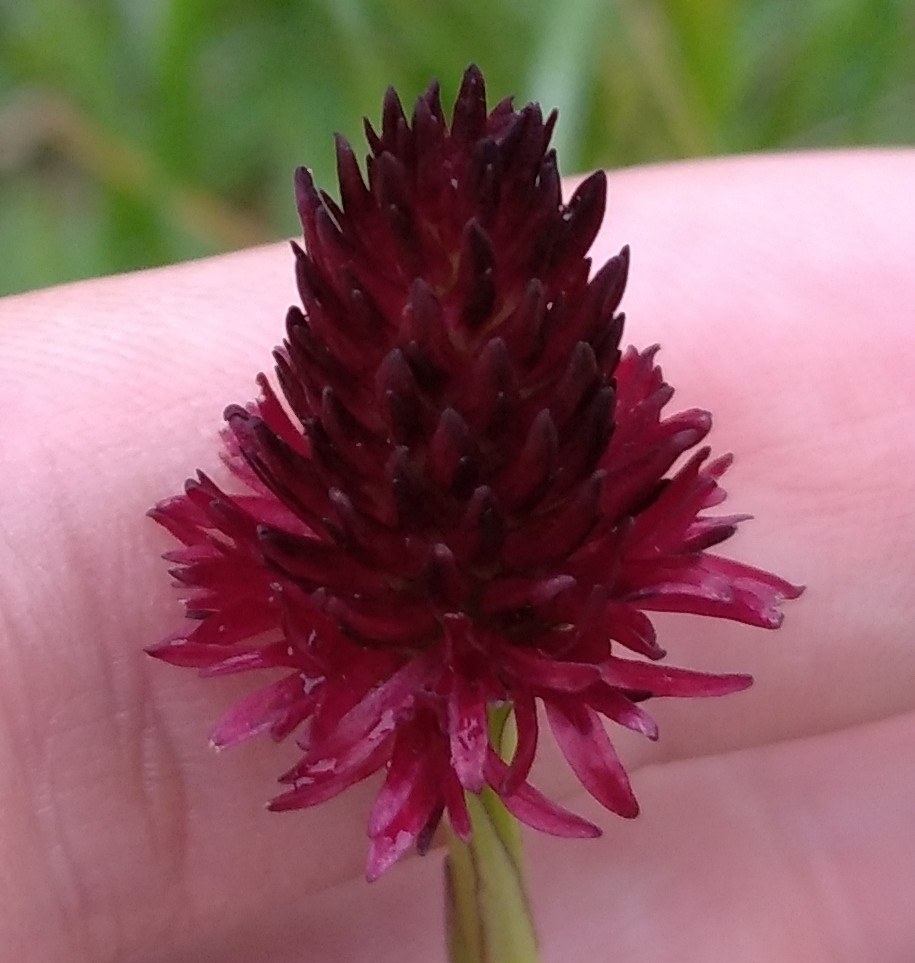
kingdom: Plantae
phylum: Tracheophyta
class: Liliopsida
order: Asparagales
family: Orchidaceae
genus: Gymnadenia
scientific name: Gymnadenia rhellicani
